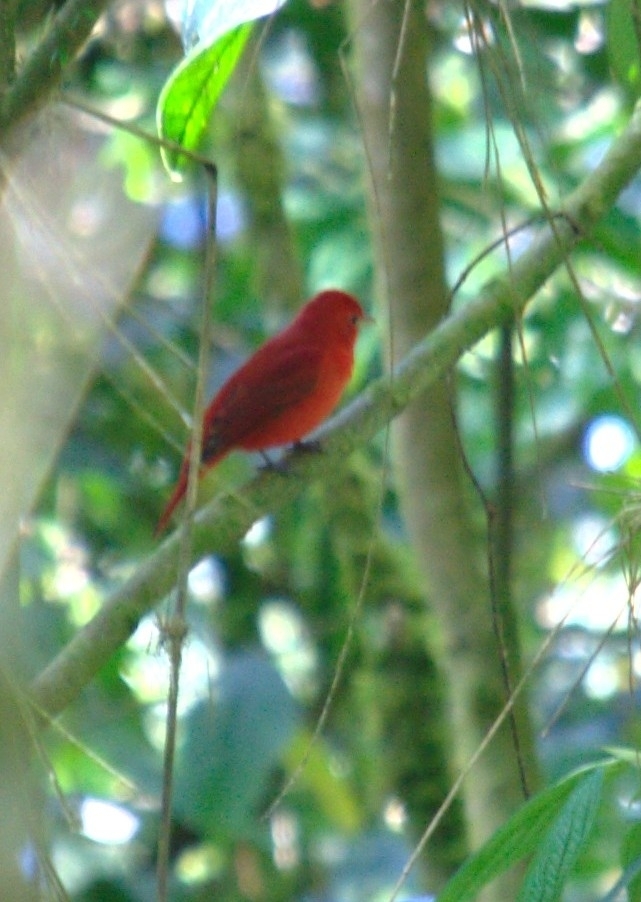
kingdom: Animalia
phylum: Chordata
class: Aves
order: Passeriformes
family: Cardinalidae
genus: Piranga
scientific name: Piranga rubra
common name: Summer tanager
